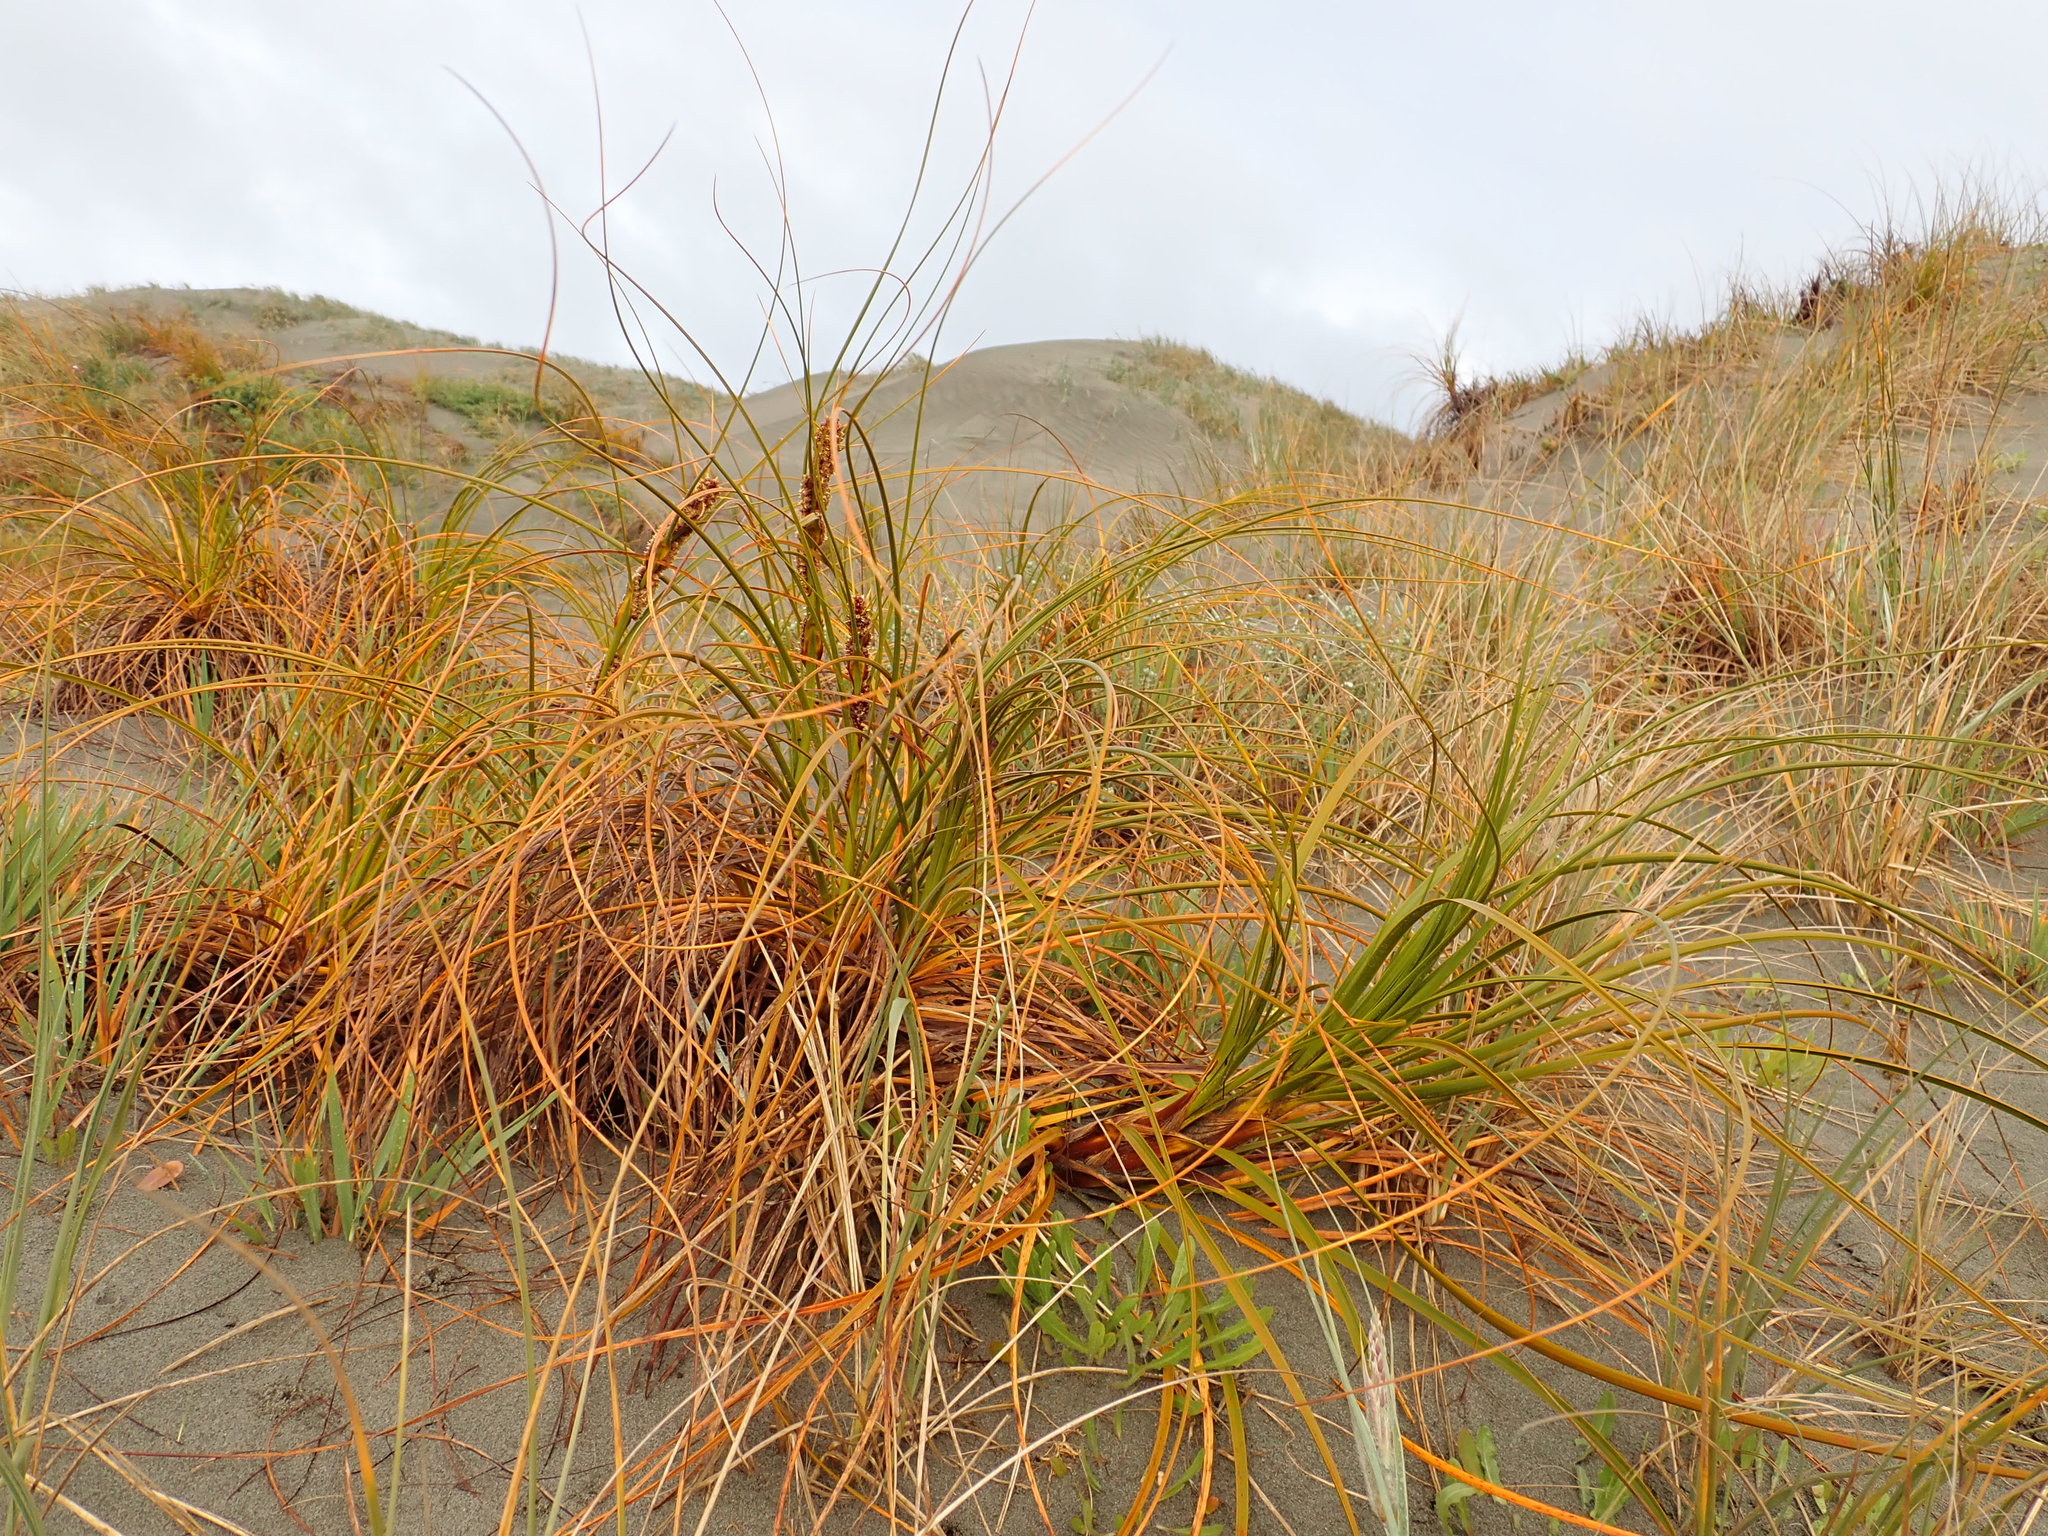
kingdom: Plantae
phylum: Tracheophyta
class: Liliopsida
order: Poales
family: Cyperaceae
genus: Ficinia
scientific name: Ficinia spiralis
